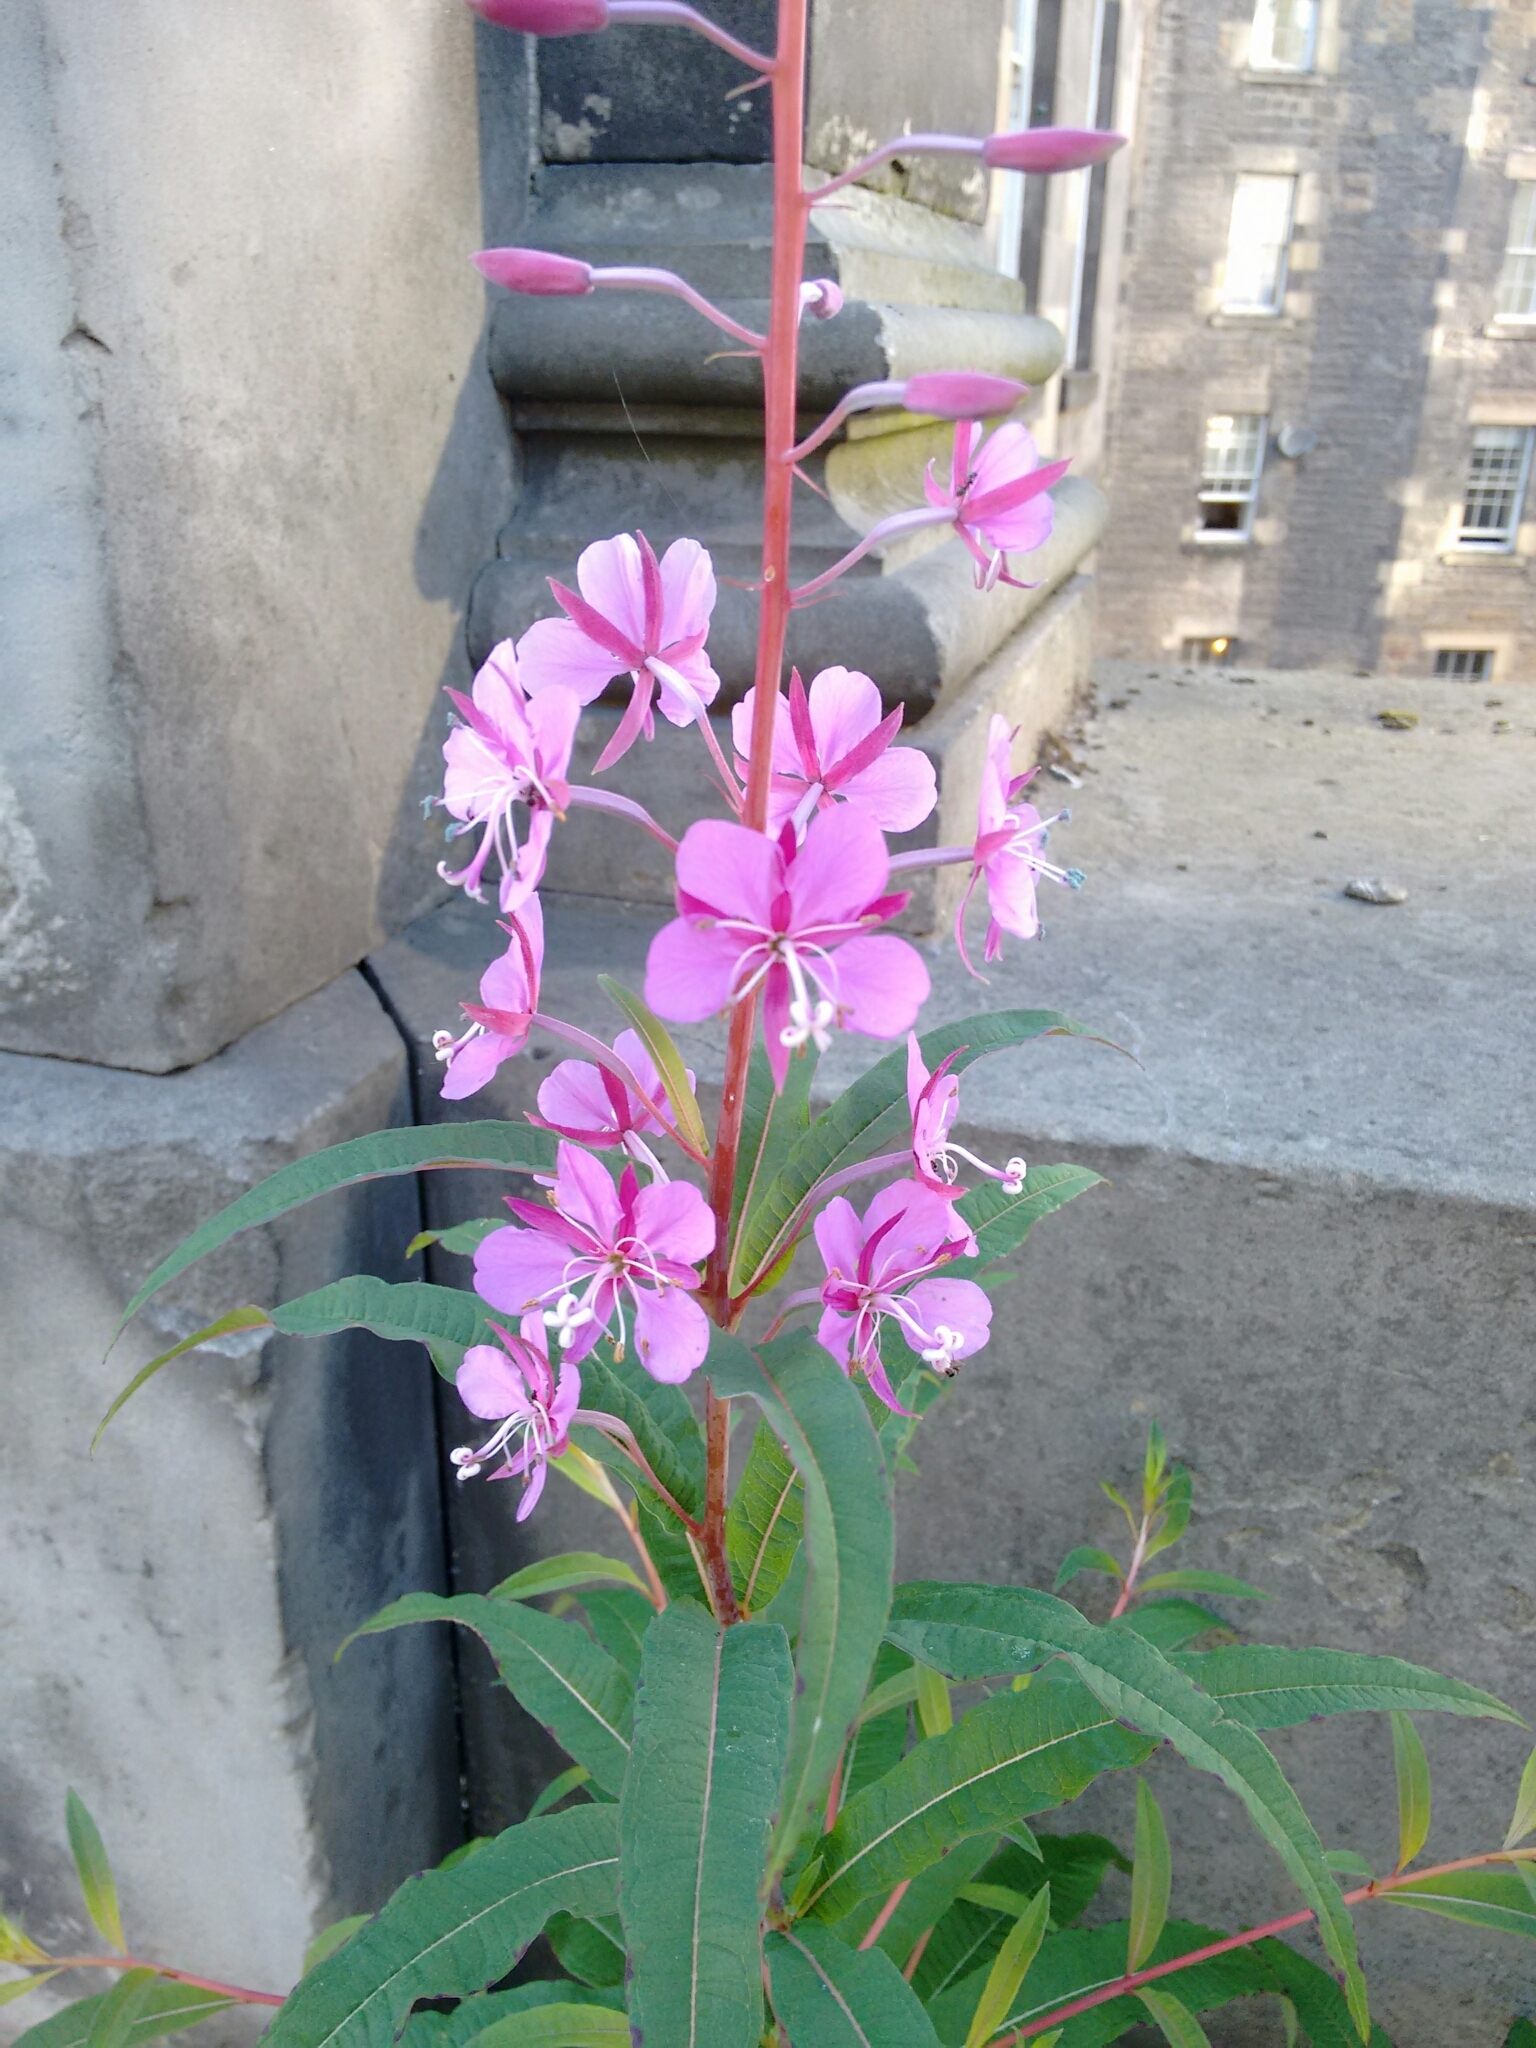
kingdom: Plantae
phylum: Tracheophyta
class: Magnoliopsida
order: Myrtales
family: Onagraceae
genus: Chamaenerion
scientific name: Chamaenerion angustifolium
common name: Fireweed
